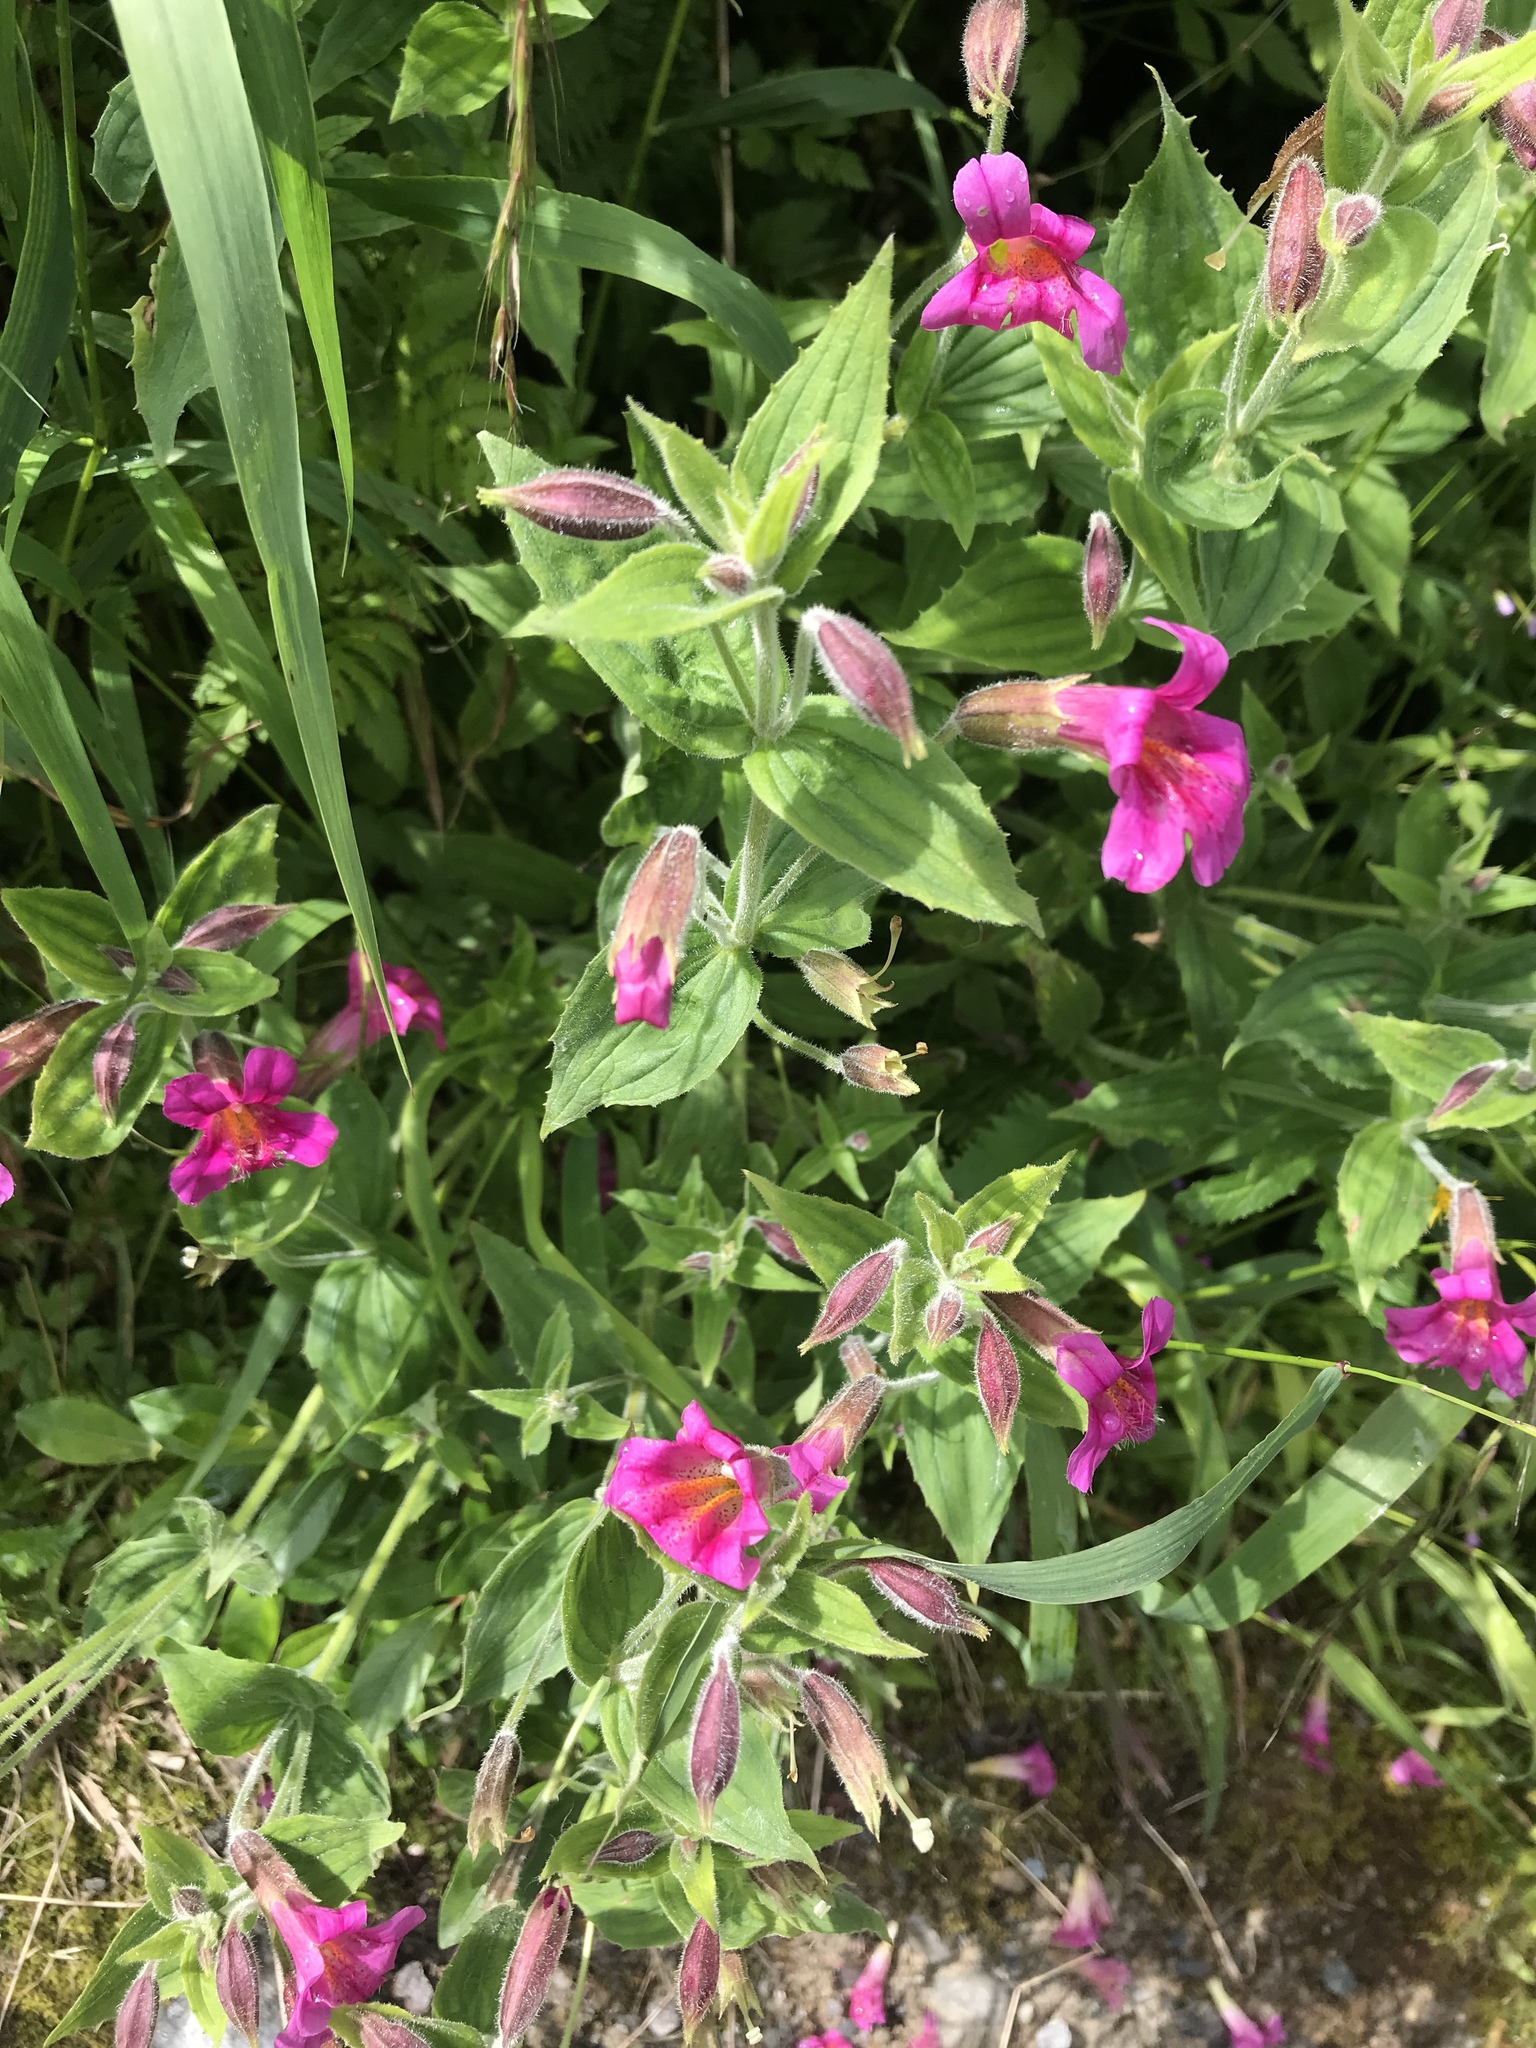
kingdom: Plantae
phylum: Tracheophyta
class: Magnoliopsida
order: Lamiales
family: Phrymaceae
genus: Erythranthe
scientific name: Erythranthe lewisii
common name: Lewis's monkey-flower
